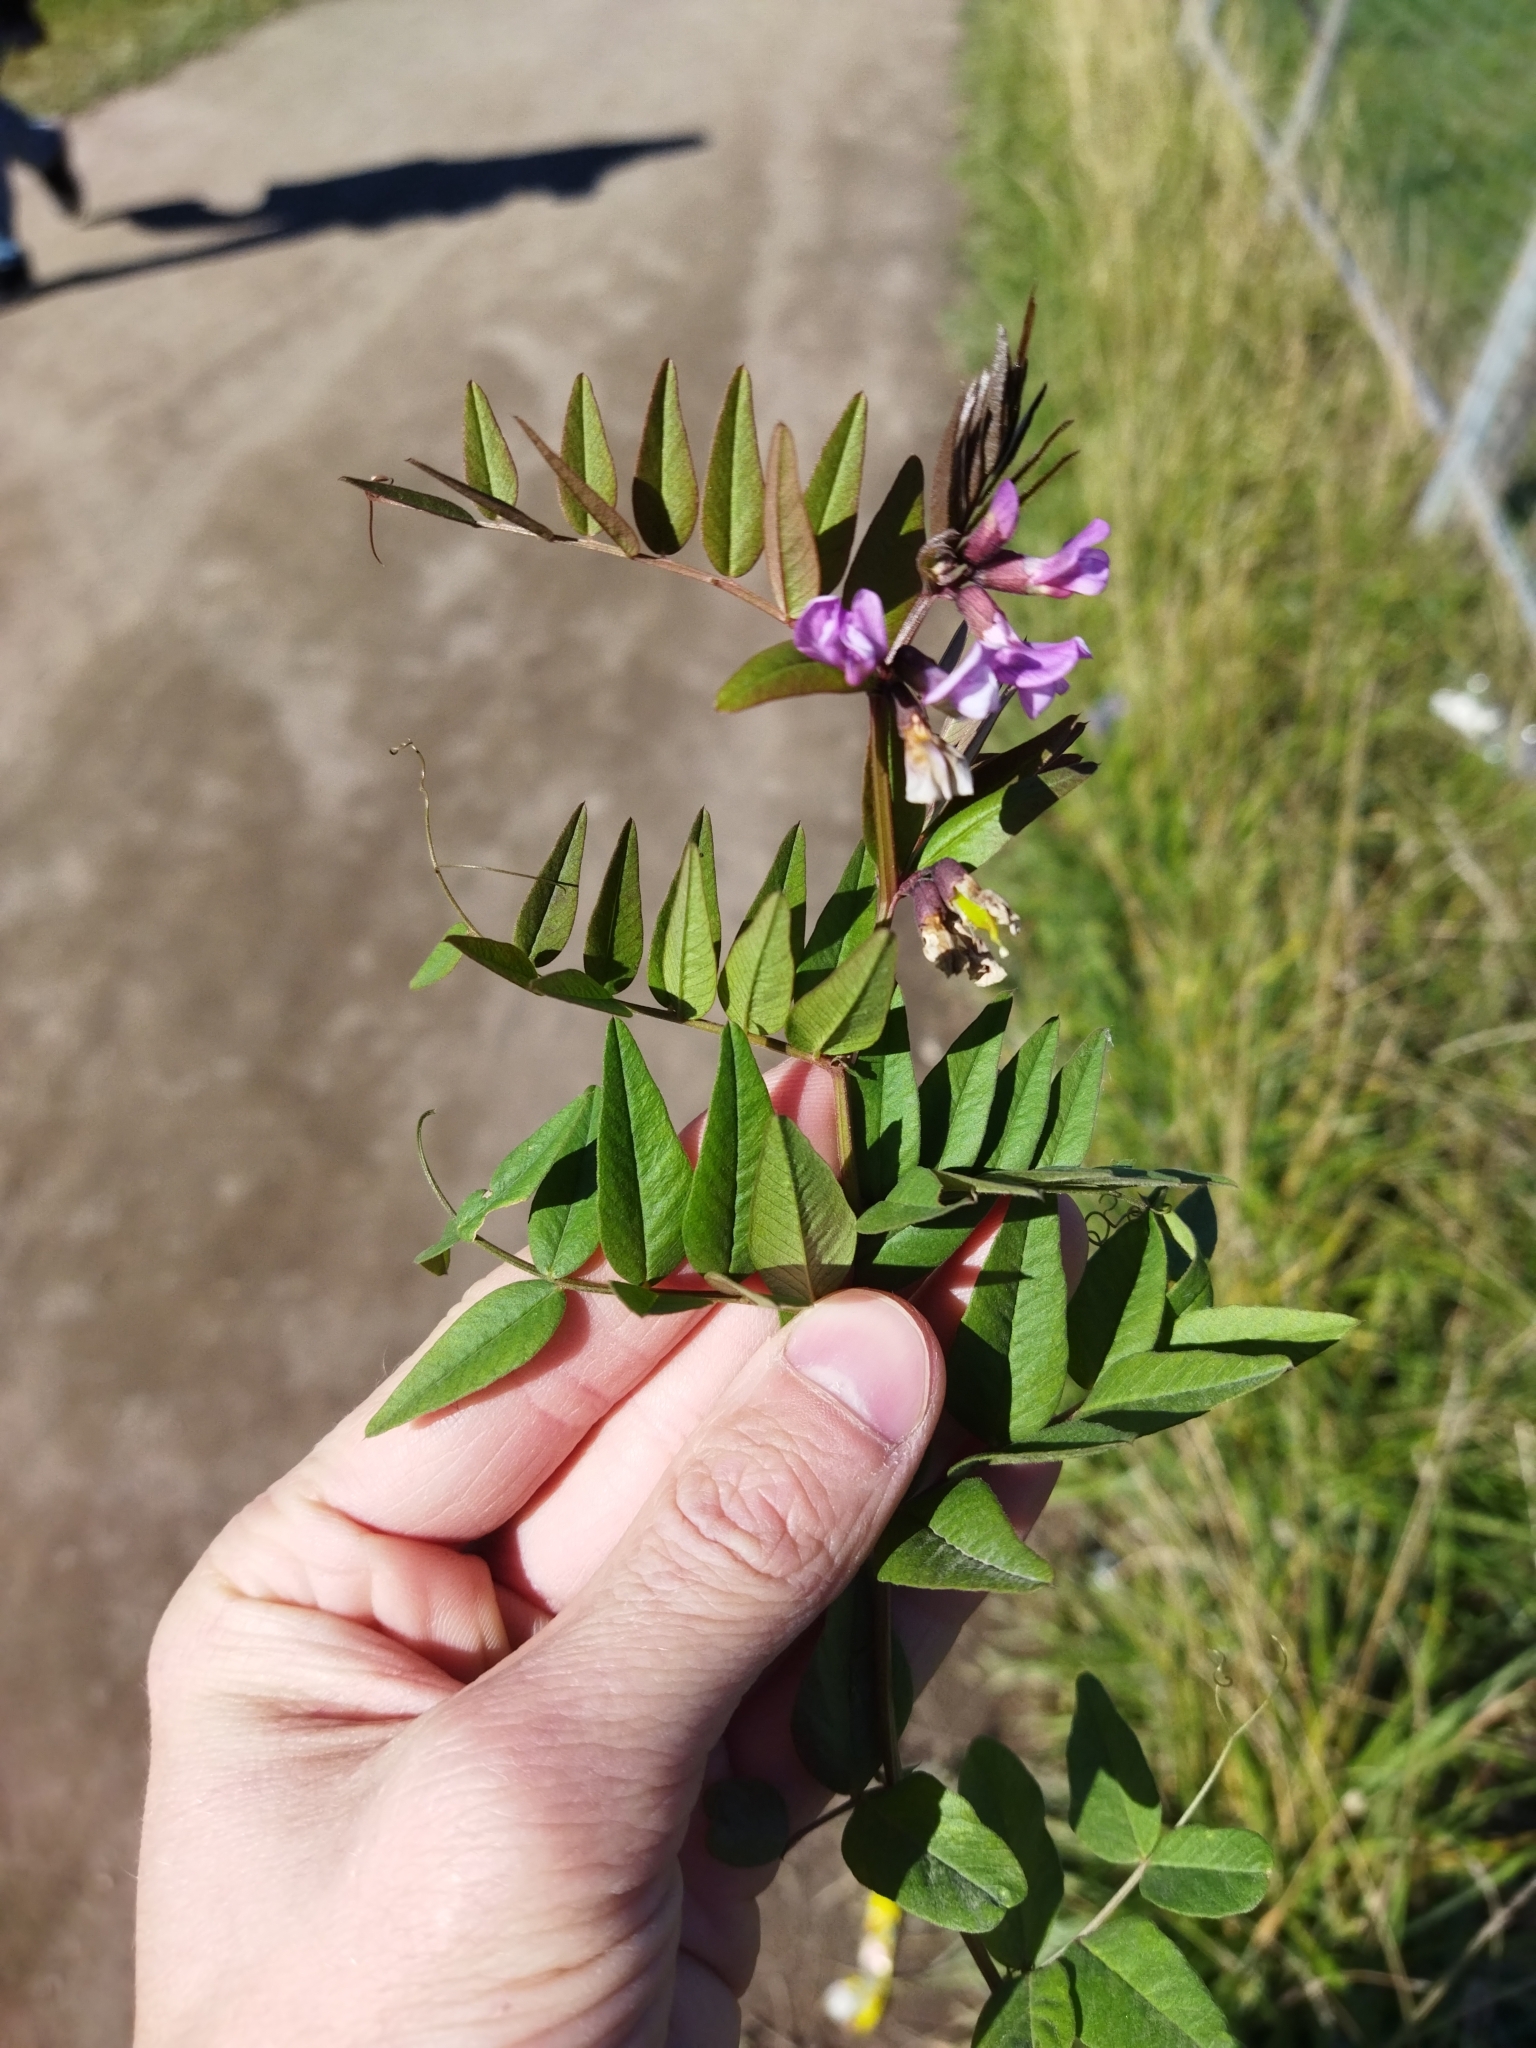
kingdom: Plantae
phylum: Tracheophyta
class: Magnoliopsida
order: Fabales
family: Fabaceae
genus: Vicia
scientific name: Vicia sepium
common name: Bush vetch
